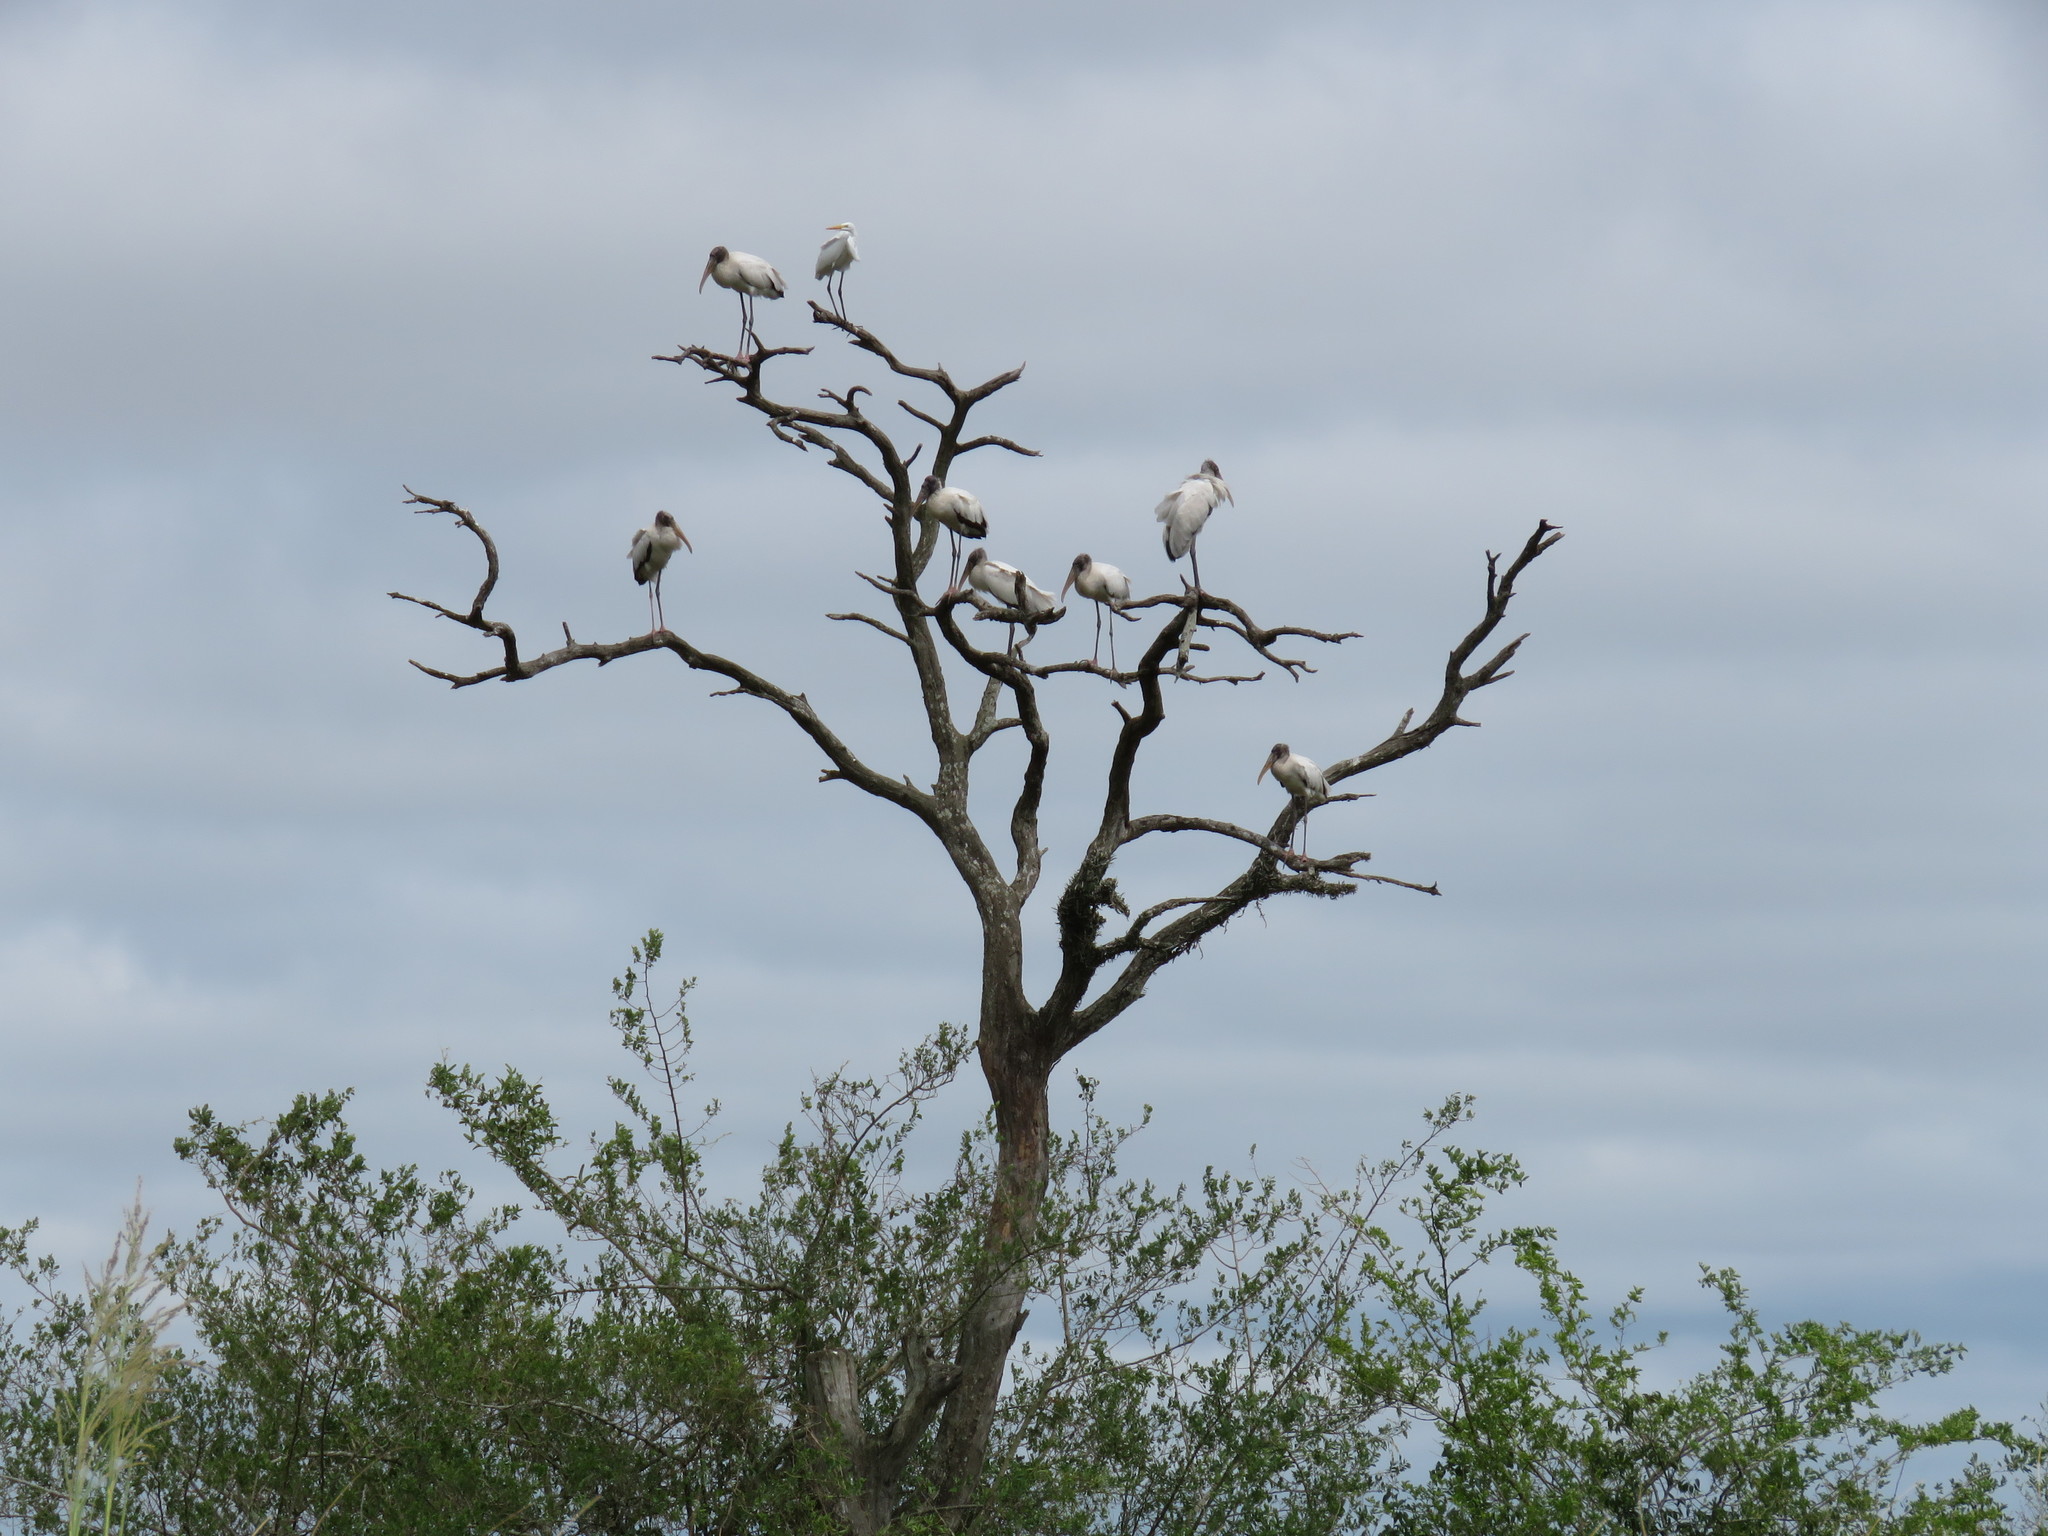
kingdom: Animalia
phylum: Chordata
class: Aves
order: Ciconiiformes
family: Ciconiidae
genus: Mycteria
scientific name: Mycteria americana
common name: Wood stork
